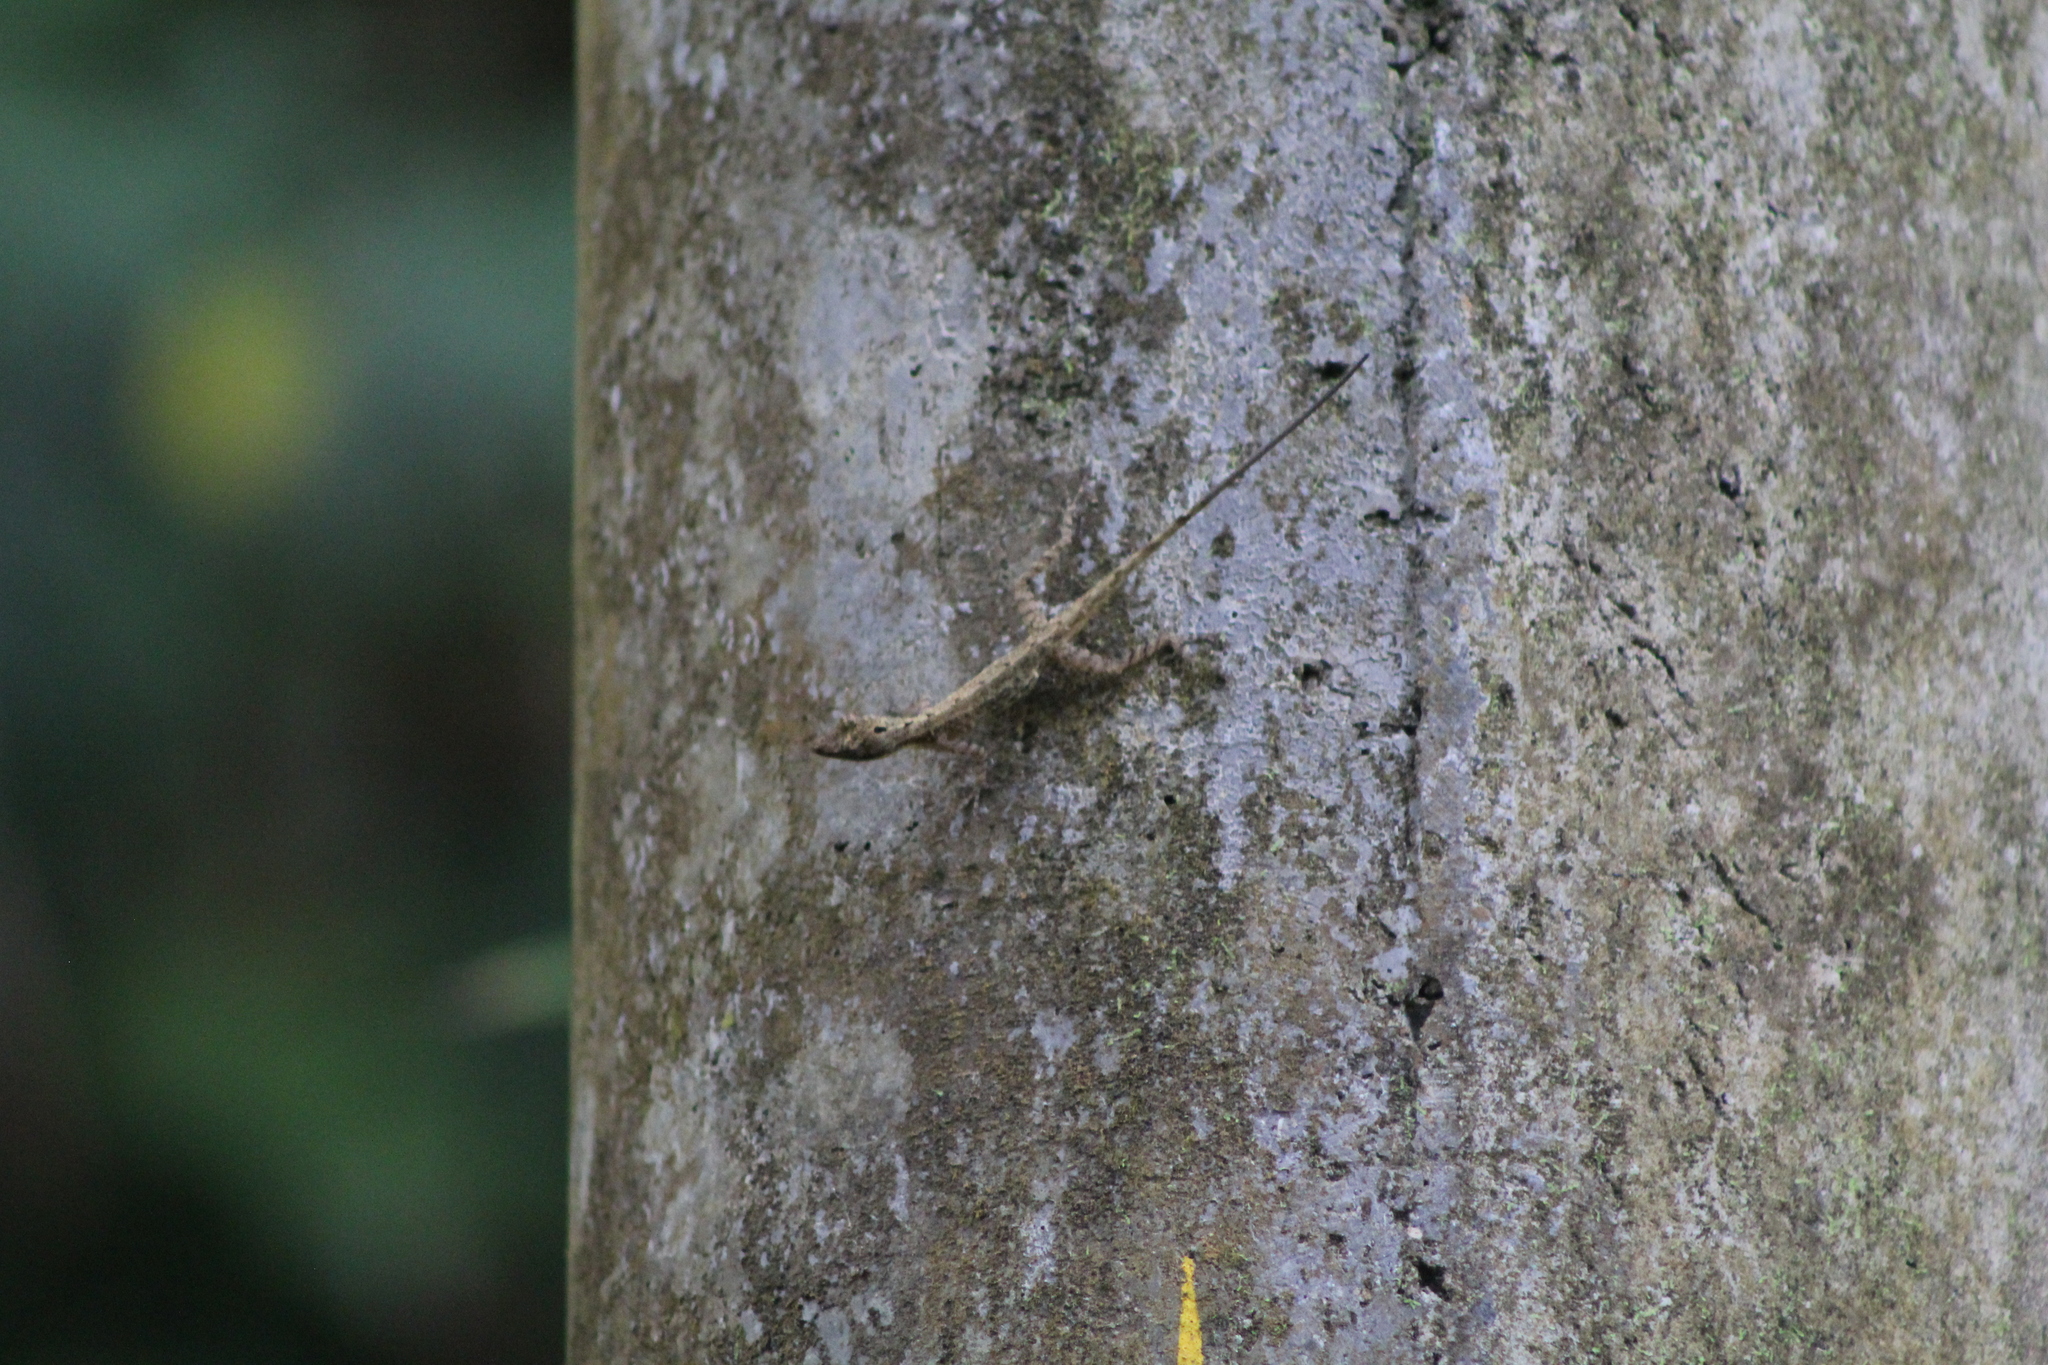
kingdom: Animalia
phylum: Chordata
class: Squamata
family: Dactyloidae
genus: Anolis
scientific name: Anolis limifrons
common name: Border anole
